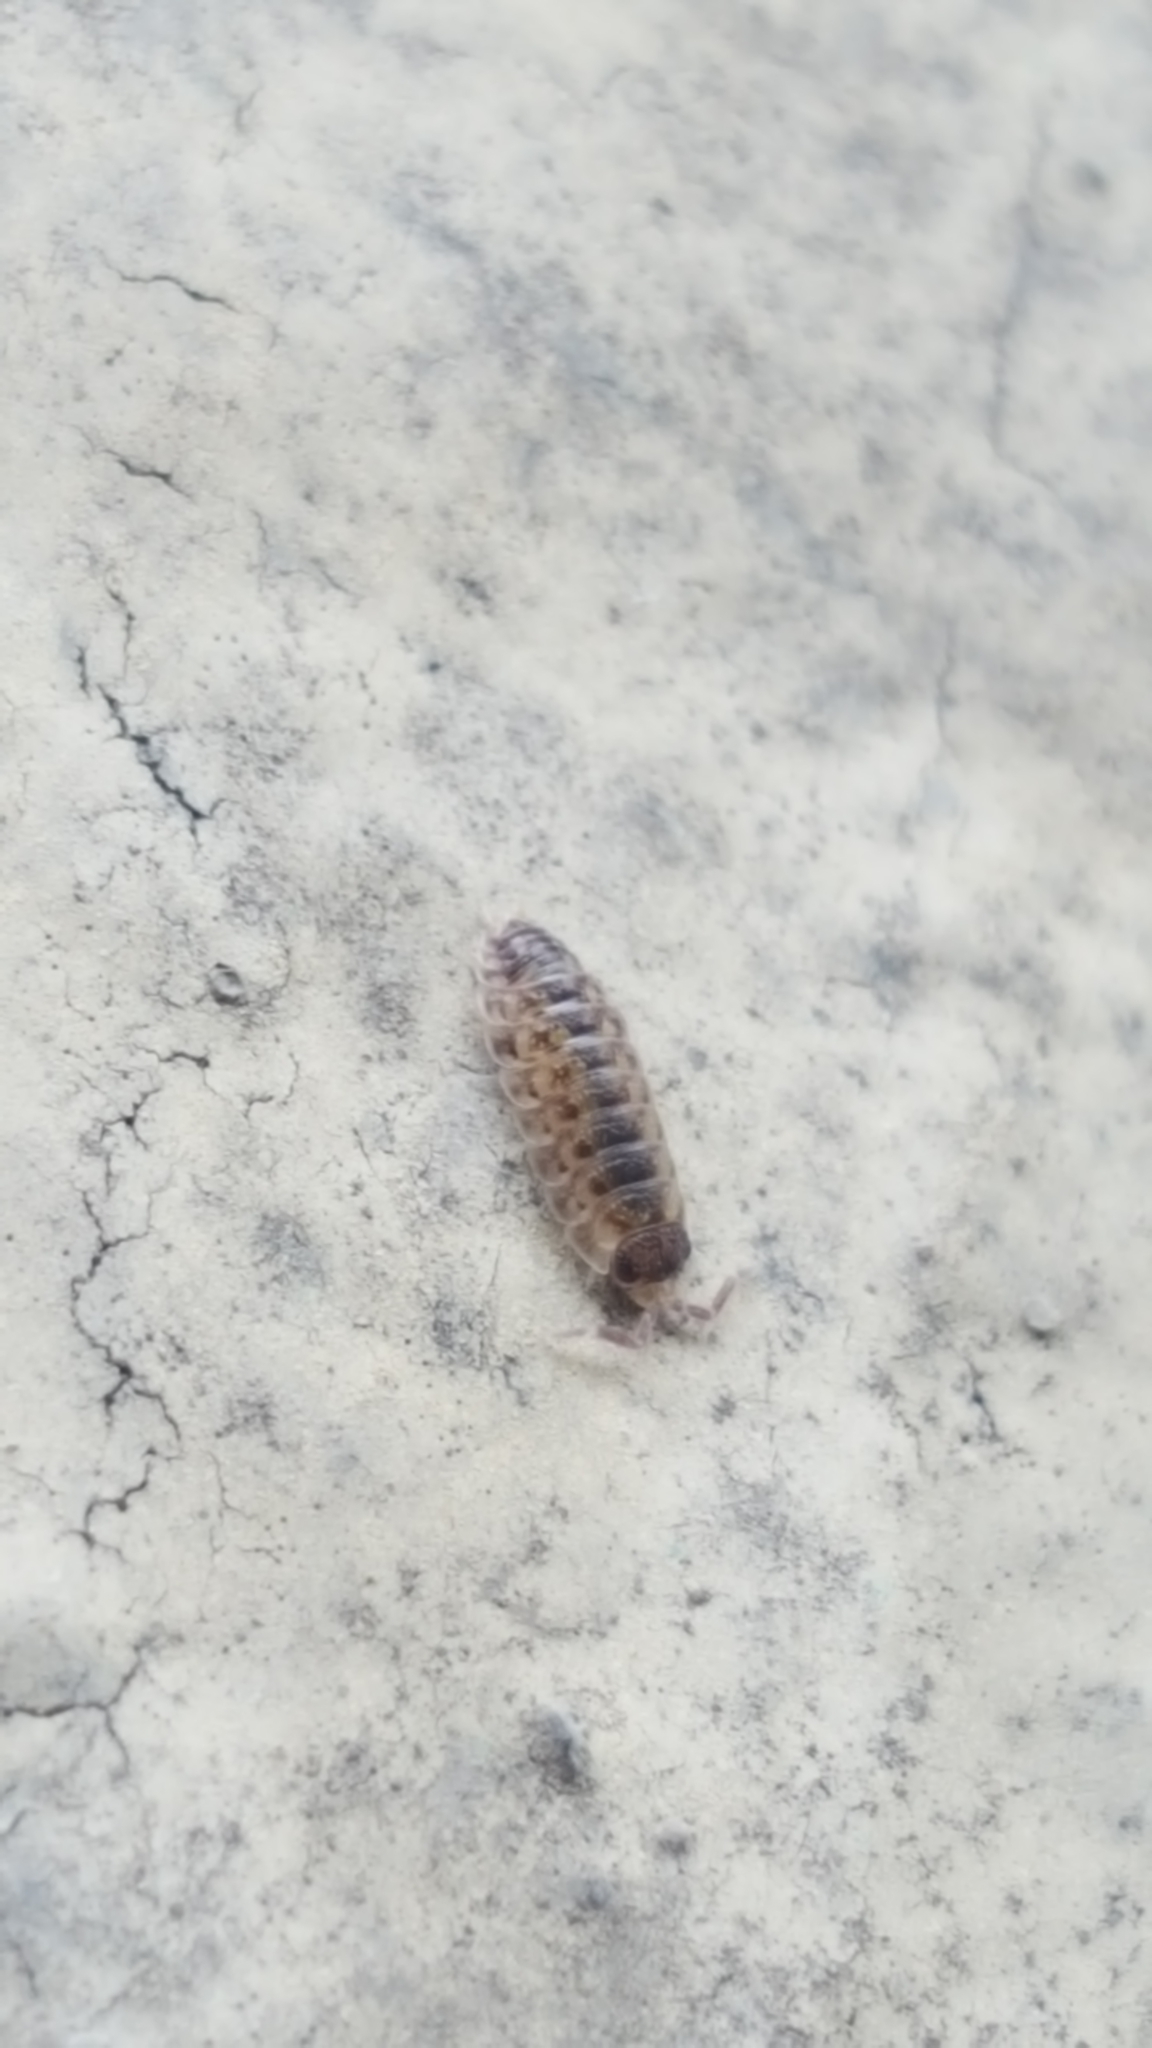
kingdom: Animalia
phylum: Arthropoda
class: Malacostraca
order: Isopoda
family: Porcellionidae
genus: Porcellio
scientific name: Porcellio spinicornis
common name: Painted woodlouse
